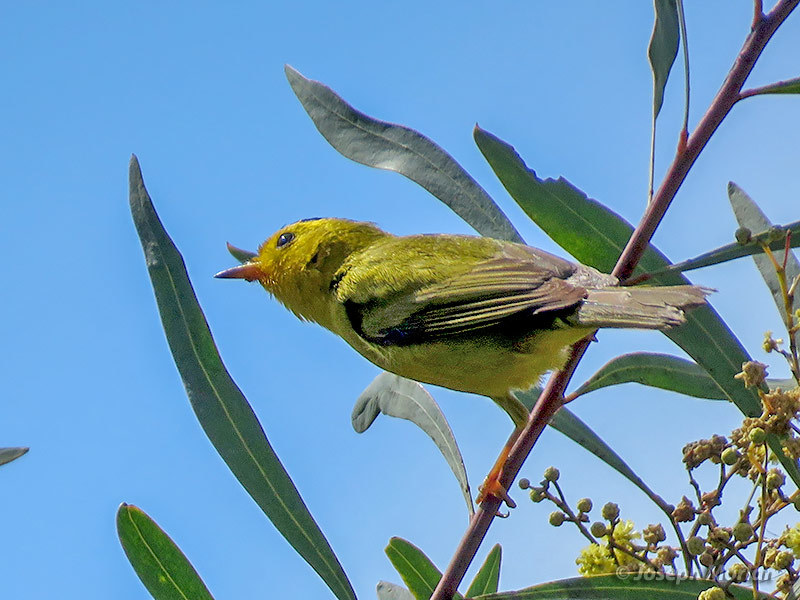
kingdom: Animalia
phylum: Chordata
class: Aves
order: Passeriformes
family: Parulidae
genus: Cardellina
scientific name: Cardellina pusilla
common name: Wilson's warbler
